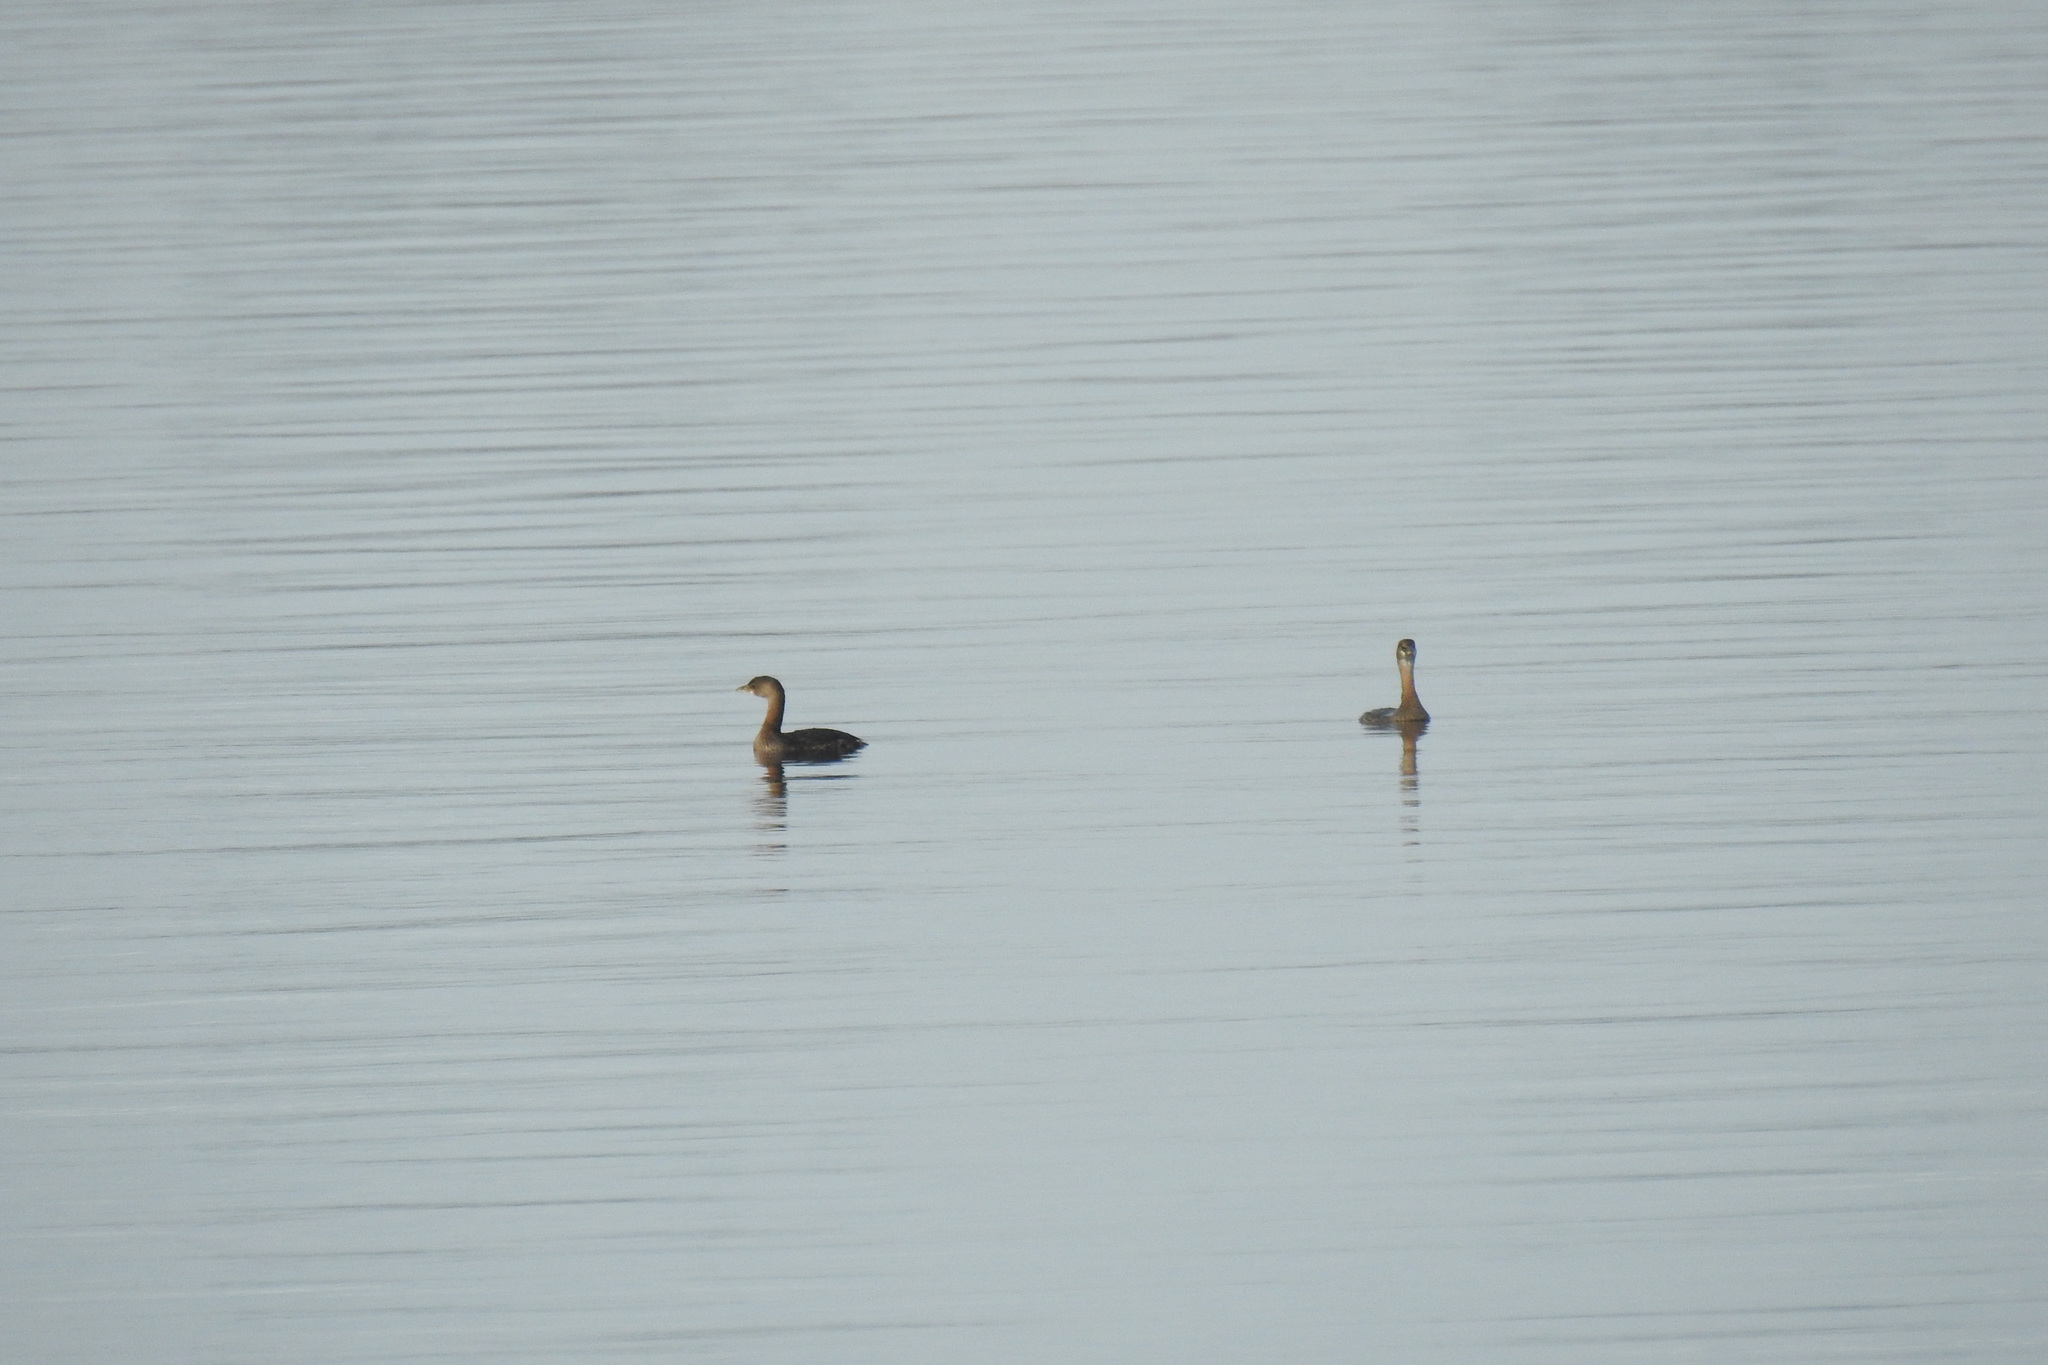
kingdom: Animalia
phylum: Chordata
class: Aves
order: Podicipediformes
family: Podicipedidae
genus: Podilymbus
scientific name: Podilymbus podiceps
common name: Pied-billed grebe
